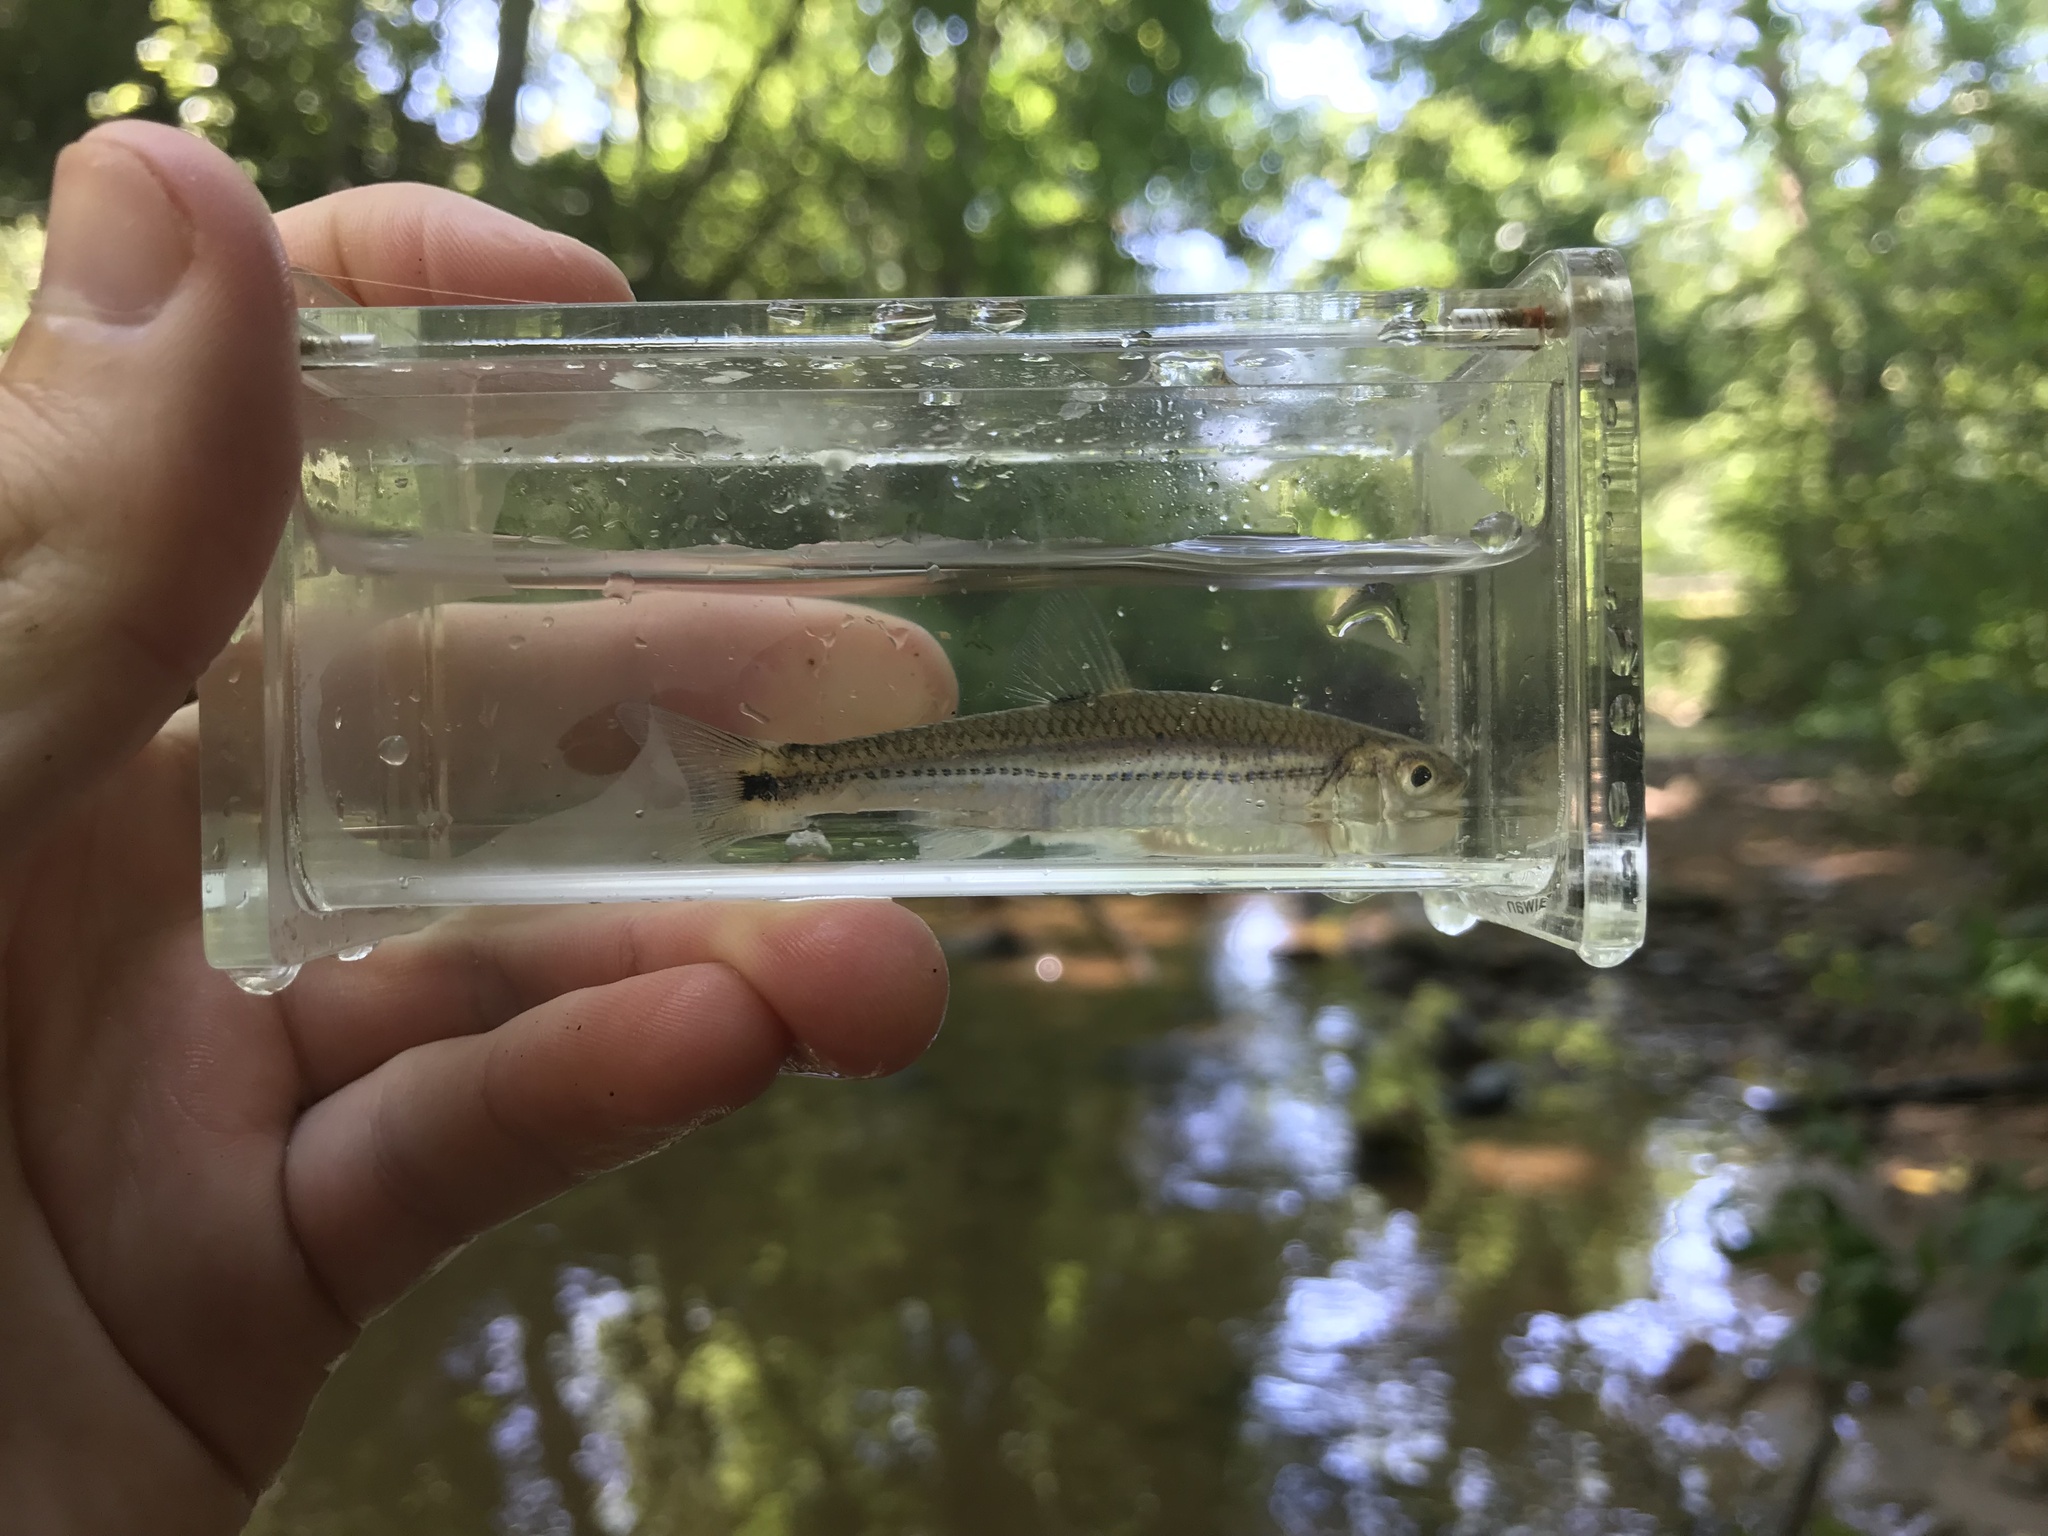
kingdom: Animalia
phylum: Chordata
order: Cypriniformes
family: Cyprinidae
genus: Notropis
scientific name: Notropis
